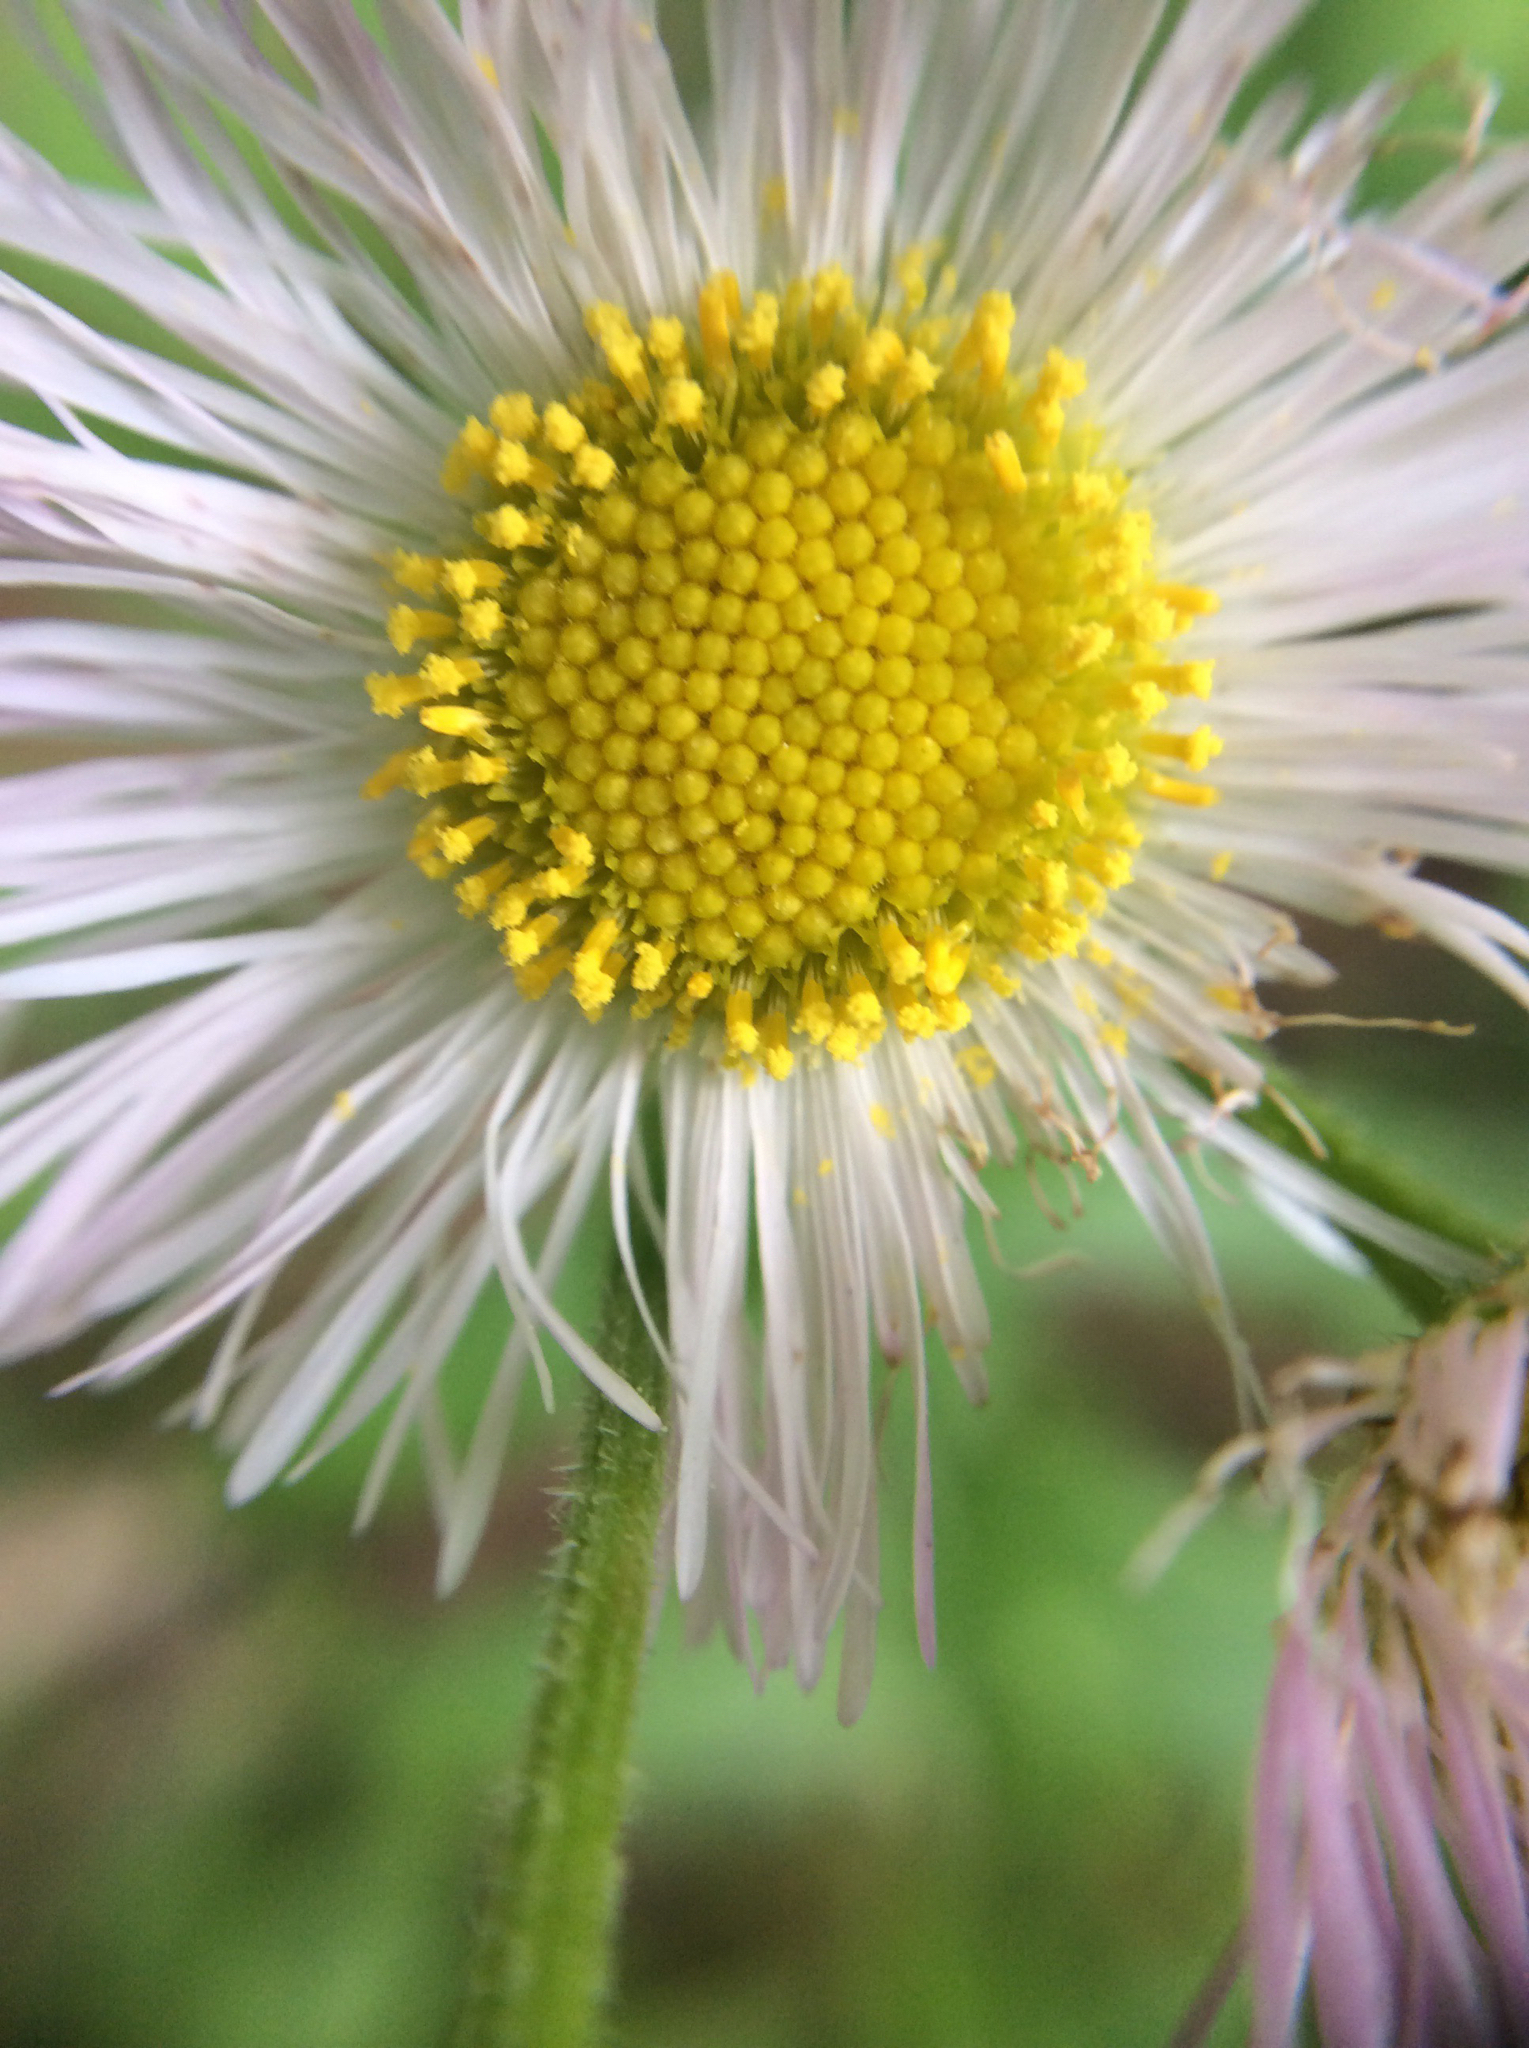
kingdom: Plantae
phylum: Tracheophyta
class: Magnoliopsida
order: Asterales
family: Asteraceae
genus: Erigeron
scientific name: Erigeron philadelphicus
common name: Robin's-plantain
